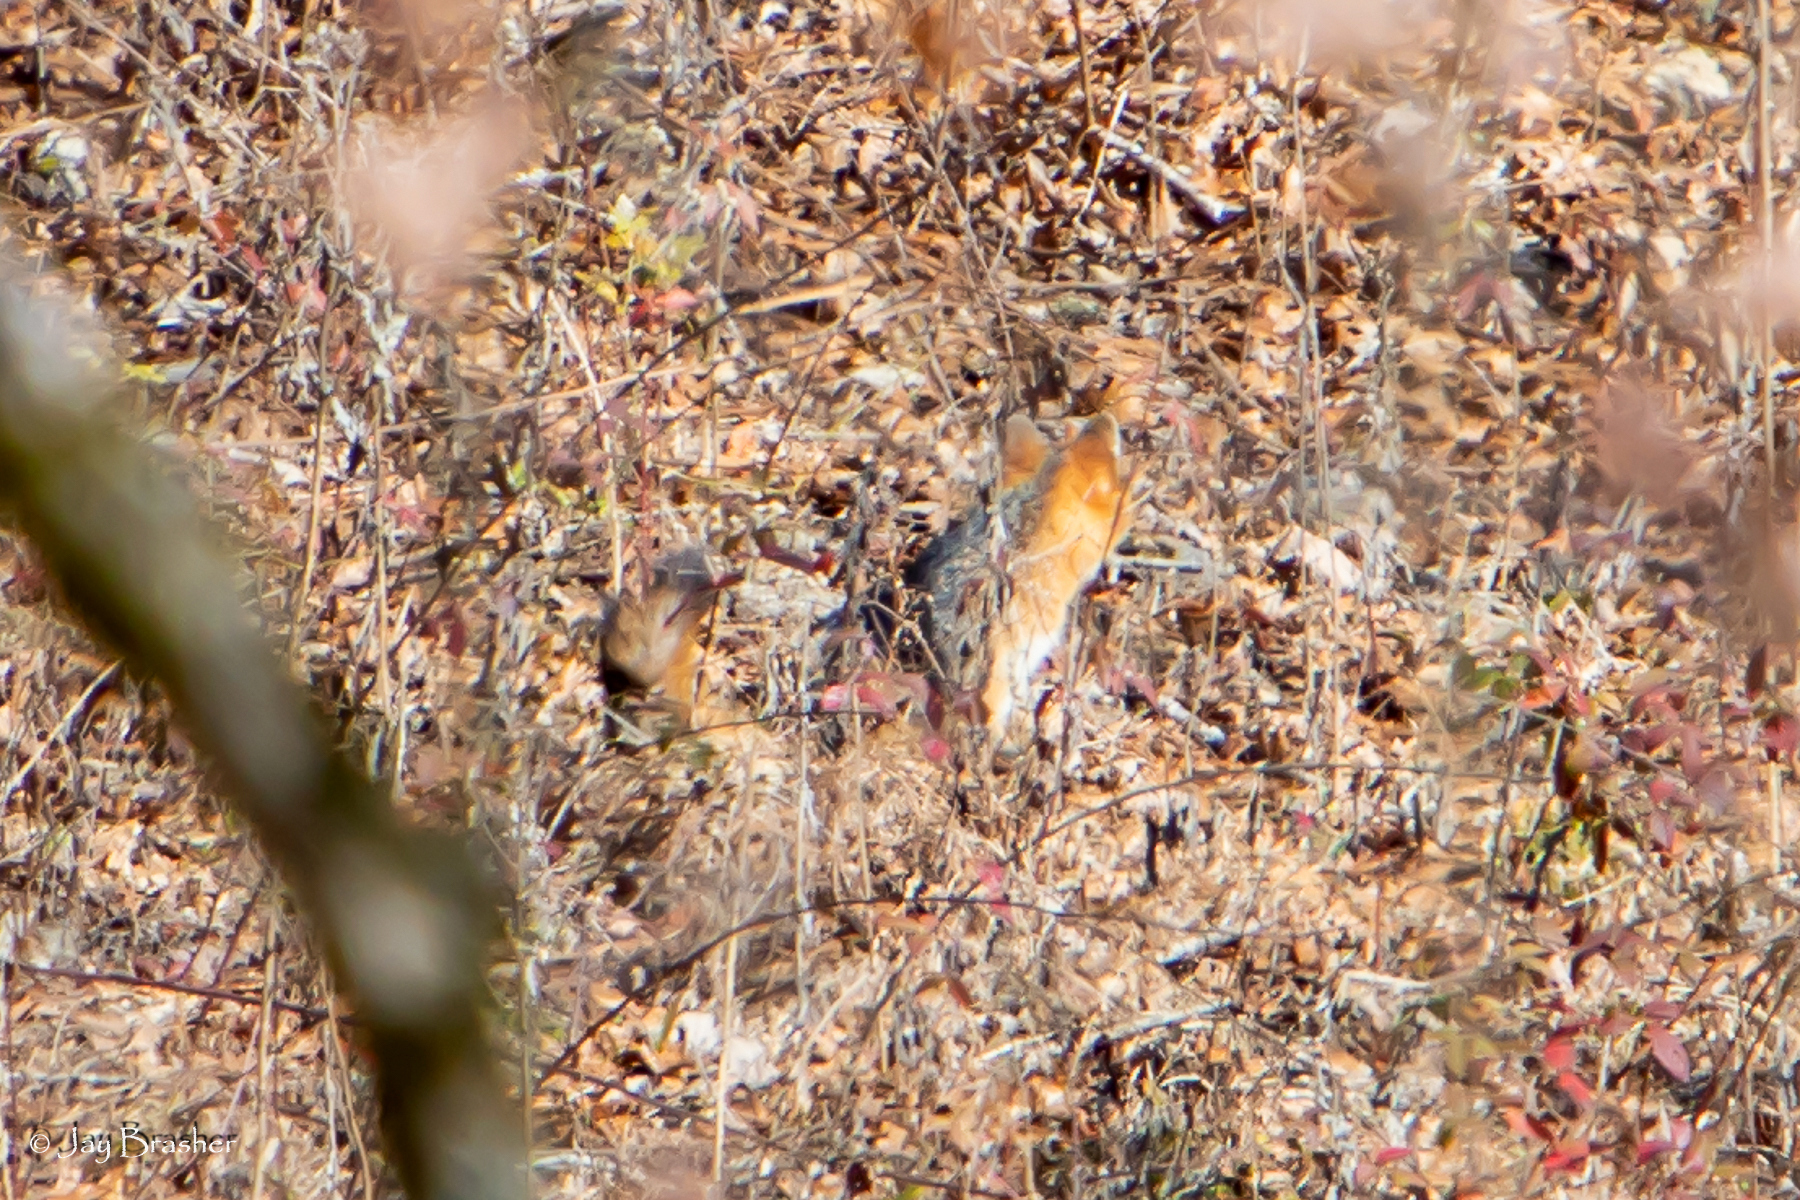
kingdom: Animalia
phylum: Chordata
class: Mammalia
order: Carnivora
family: Canidae
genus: Urocyon
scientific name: Urocyon cinereoargenteus
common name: Gray fox
